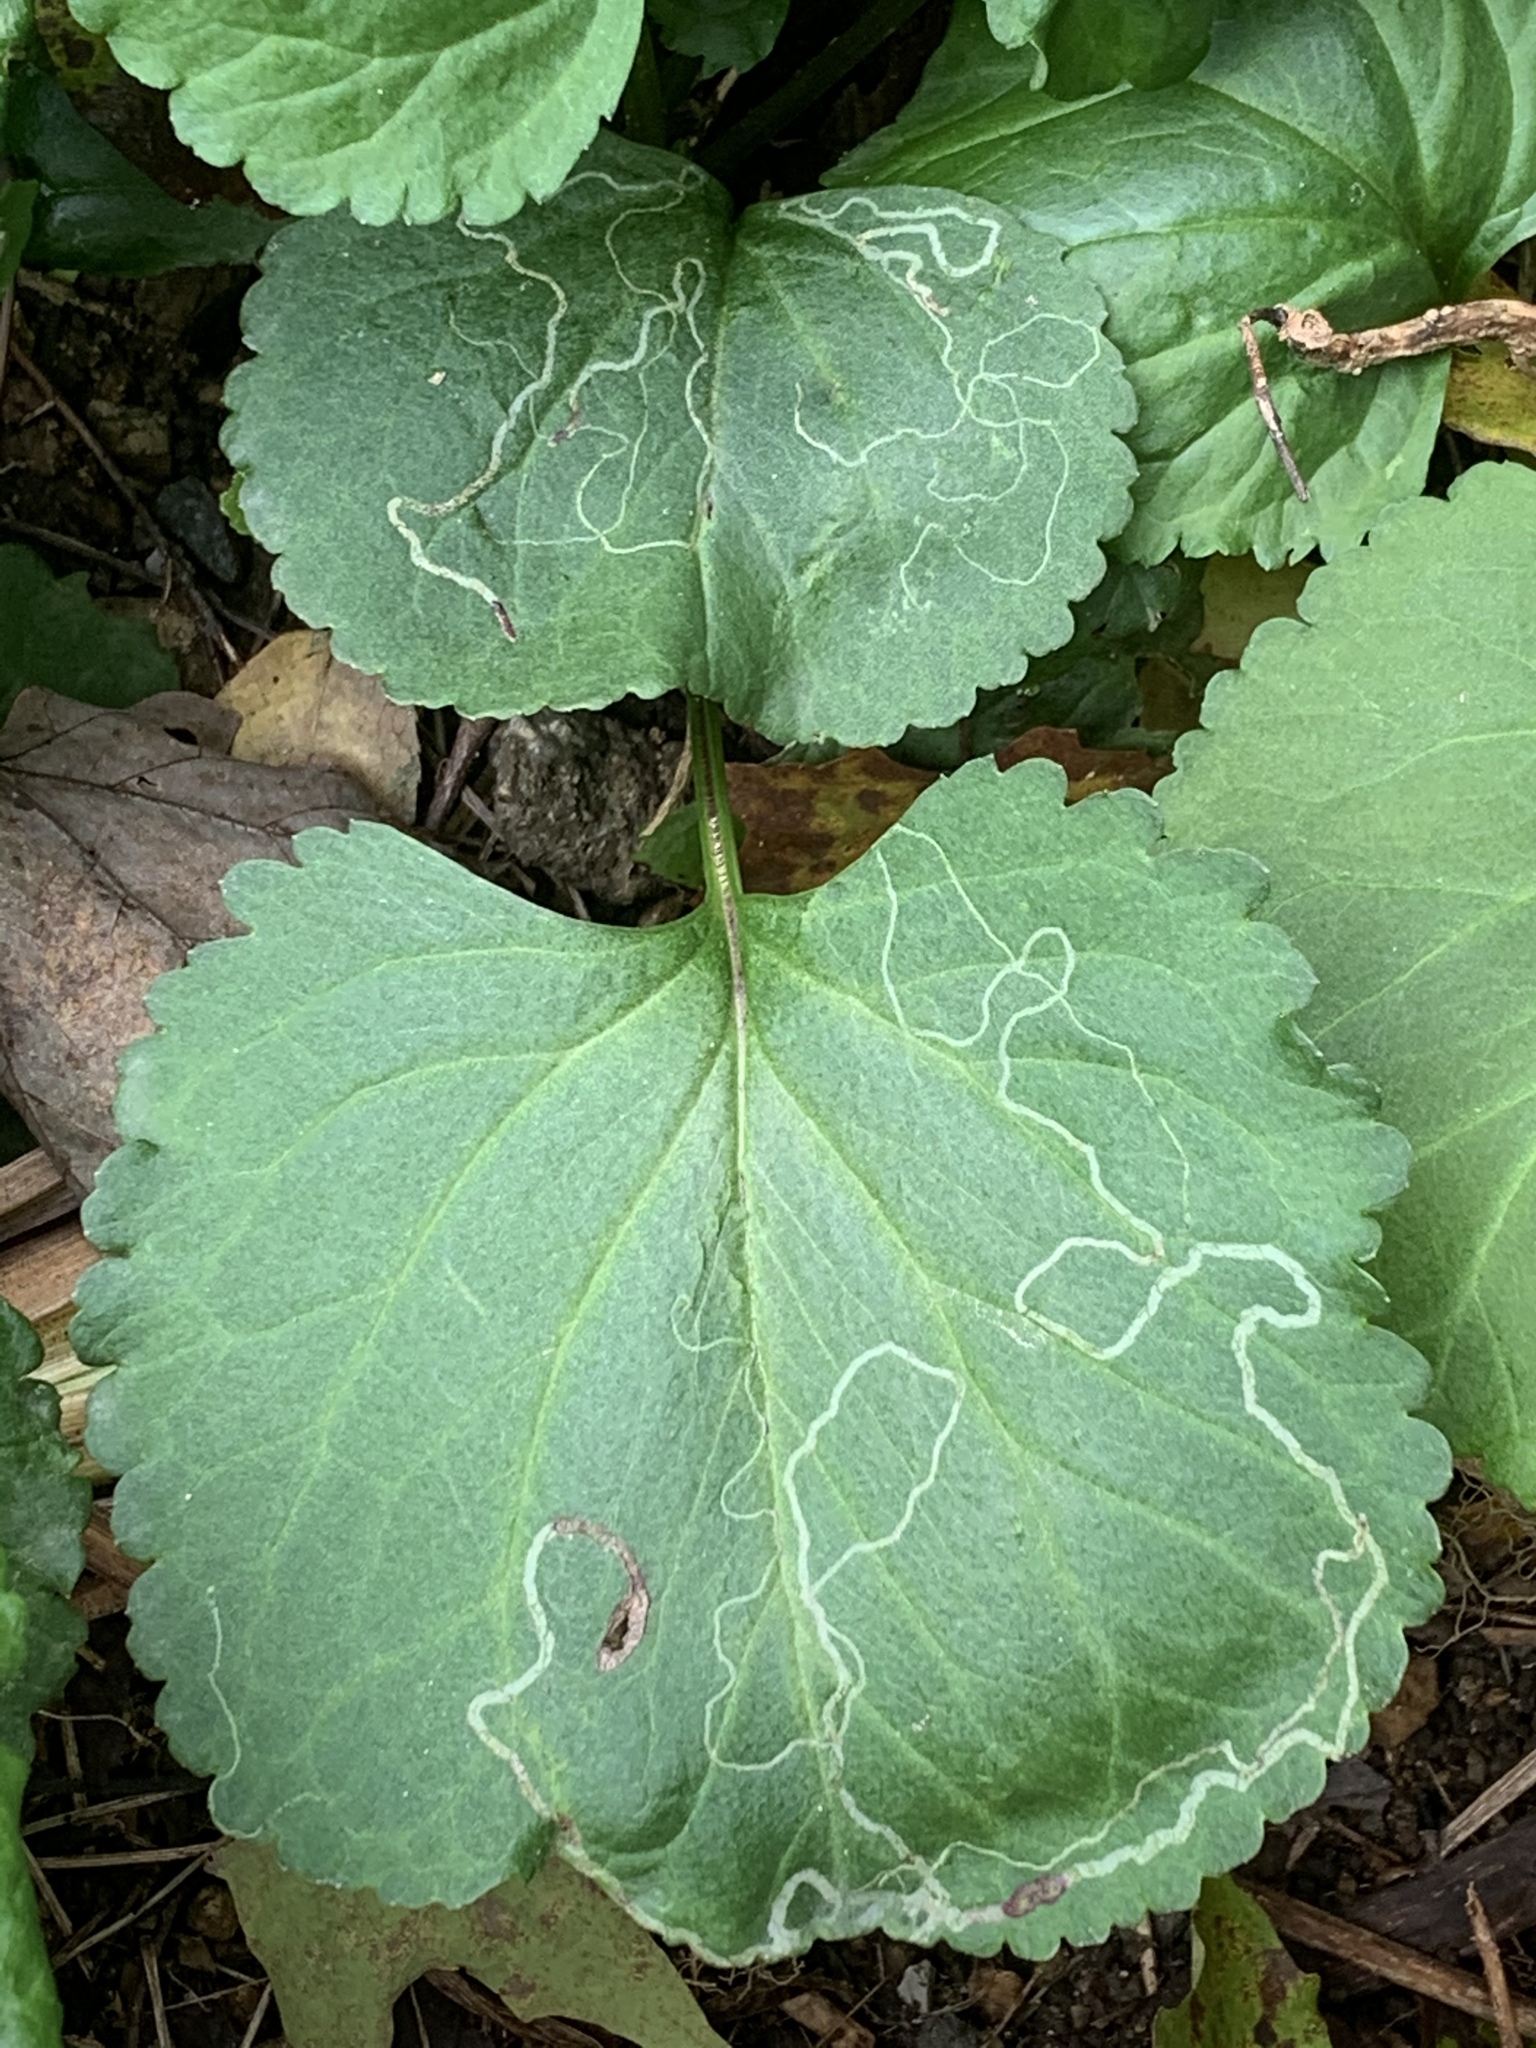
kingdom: Animalia
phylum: Arthropoda
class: Insecta
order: Lepidoptera
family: Gracillariidae
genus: Phyllocnistis
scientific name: Phyllocnistis insignis
